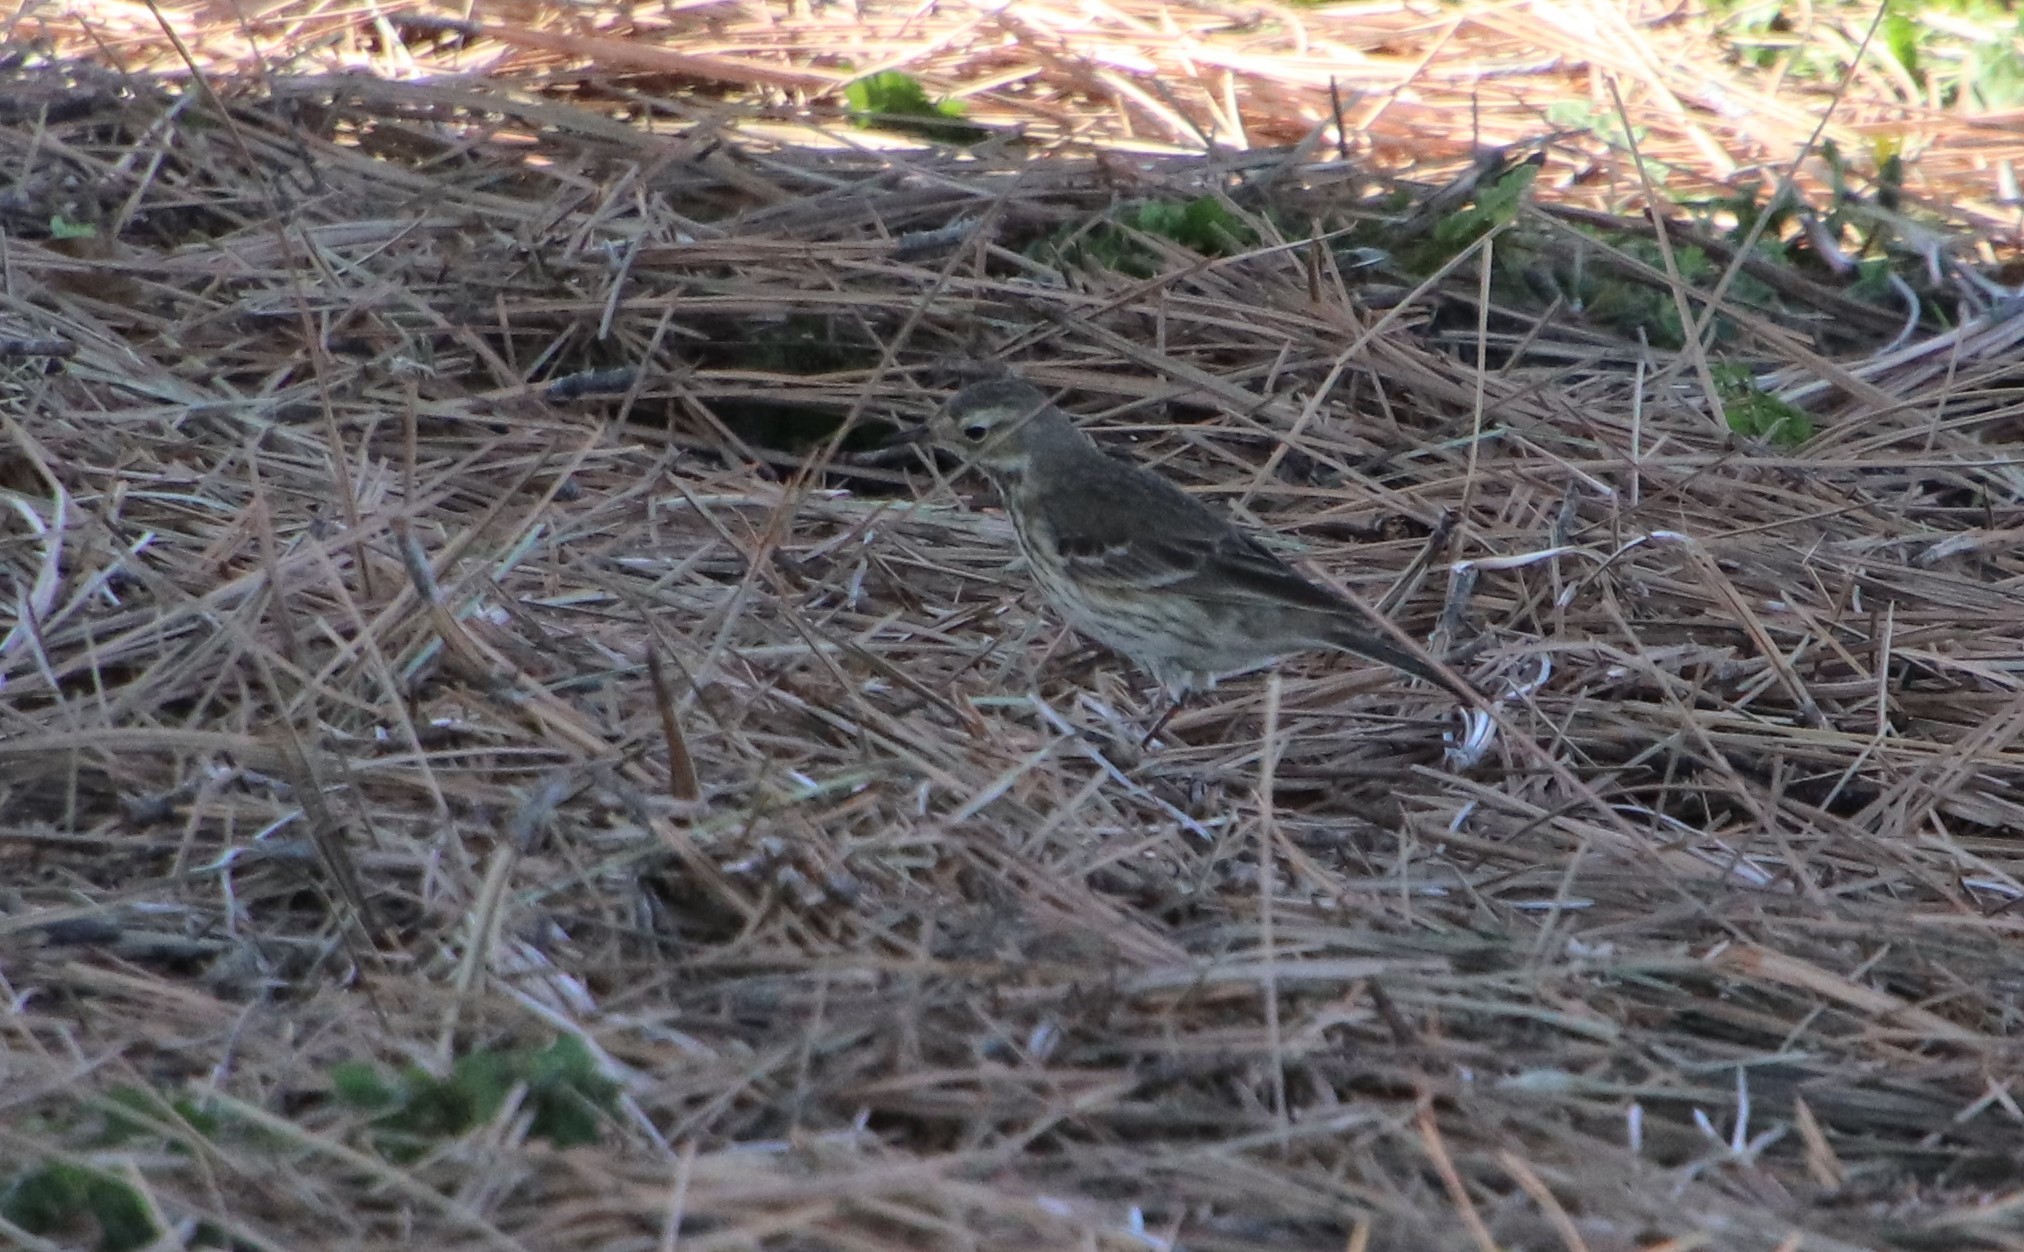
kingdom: Animalia
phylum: Chordata
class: Aves
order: Passeriformes
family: Motacillidae
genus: Anthus
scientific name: Anthus rubescens
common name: Buff-bellied pipit
